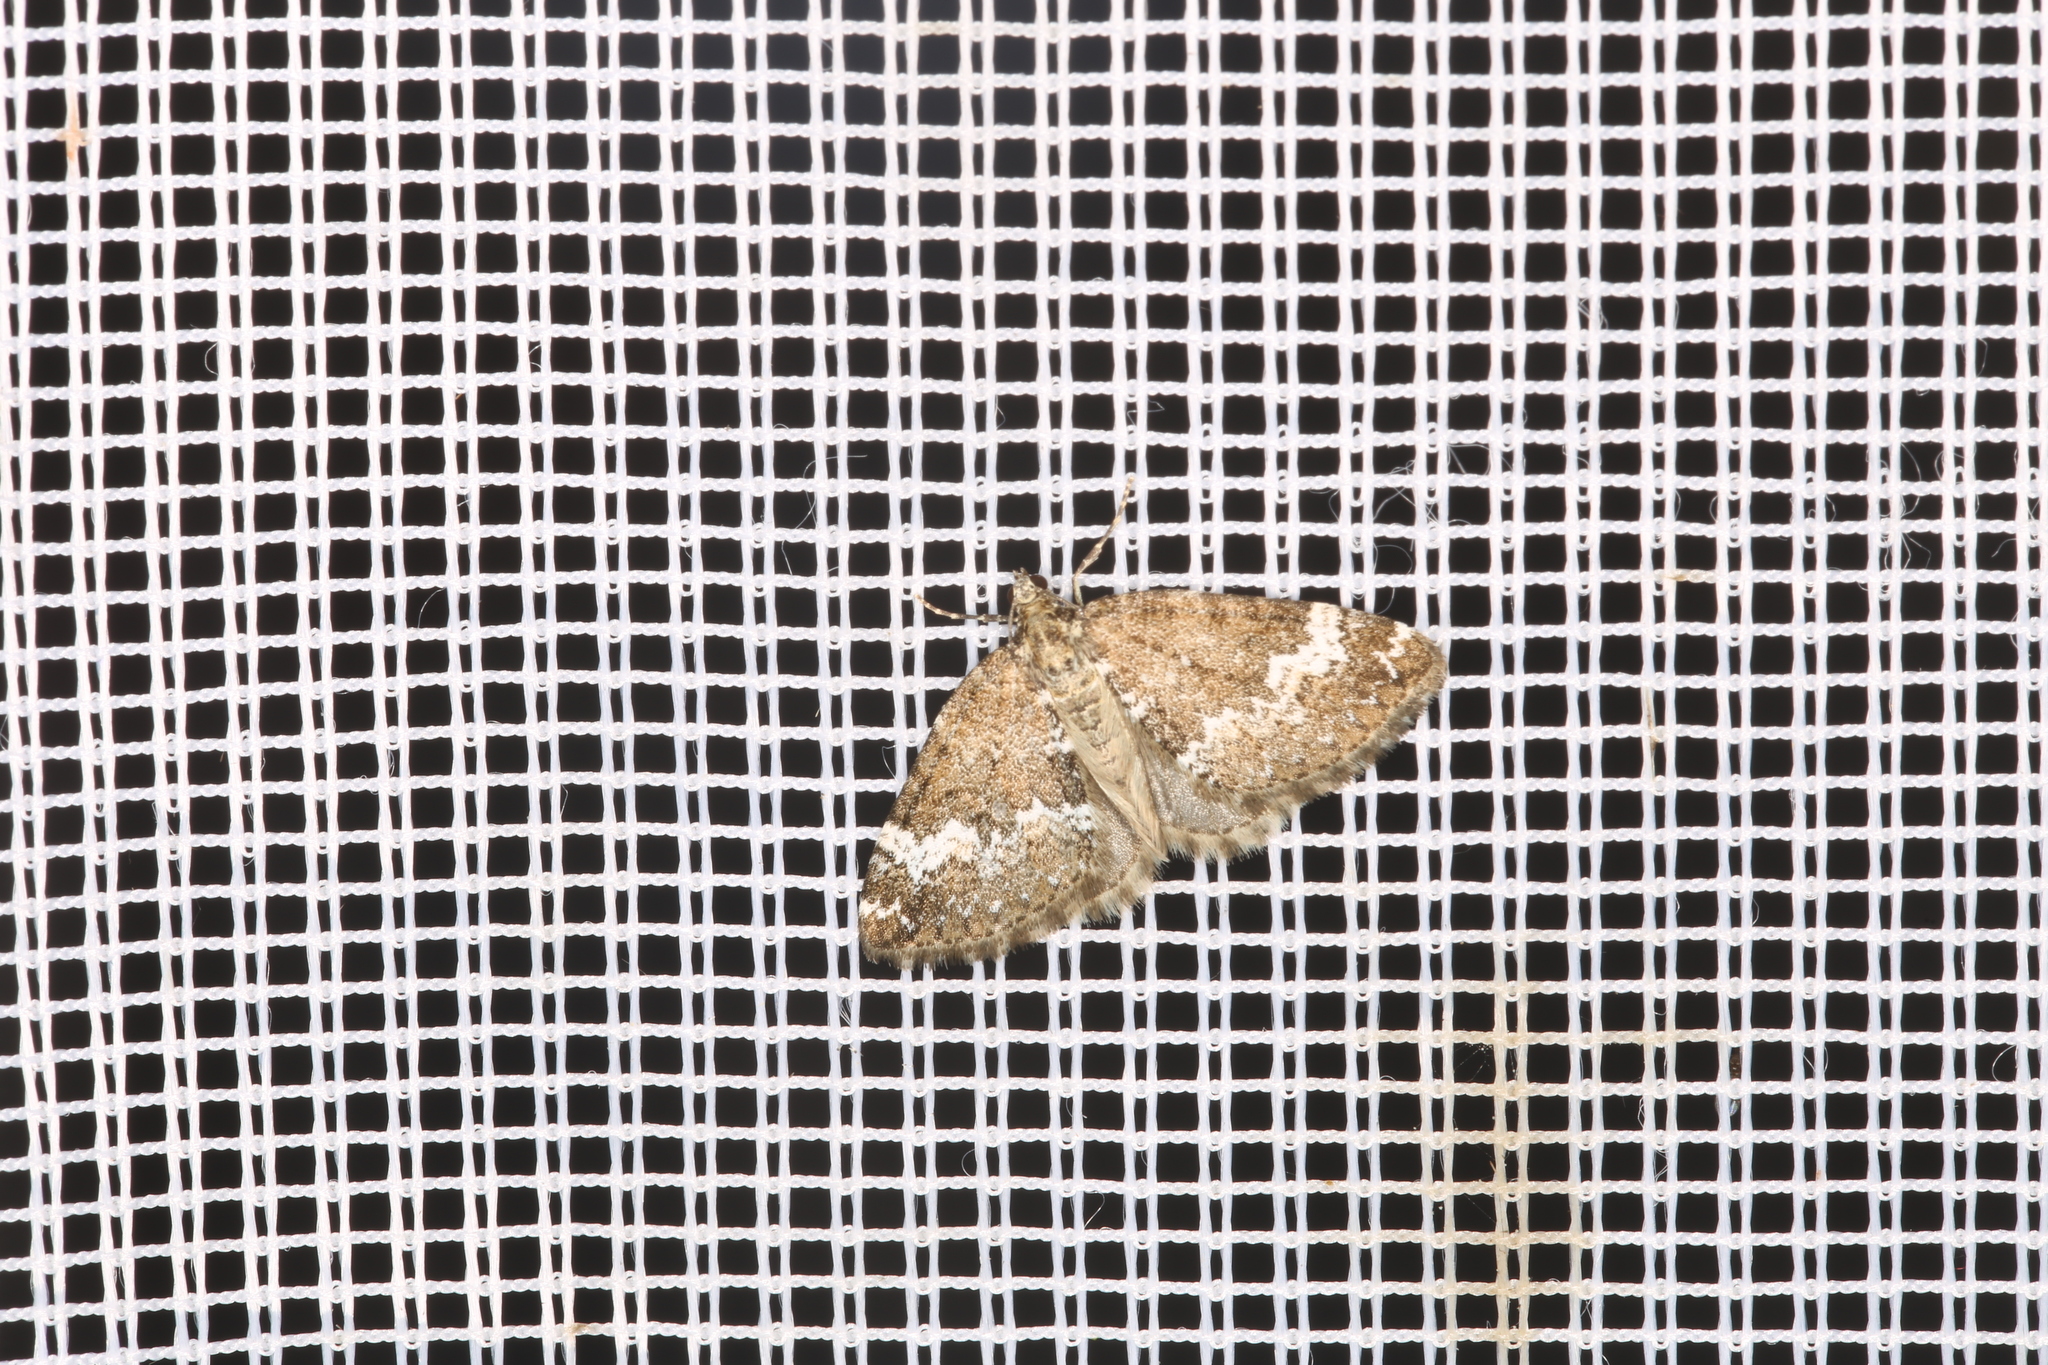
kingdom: Animalia
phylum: Arthropoda
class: Insecta
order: Lepidoptera
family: Geometridae
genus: Perizoma
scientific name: Perizoma alchemillata
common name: Small rivulet
